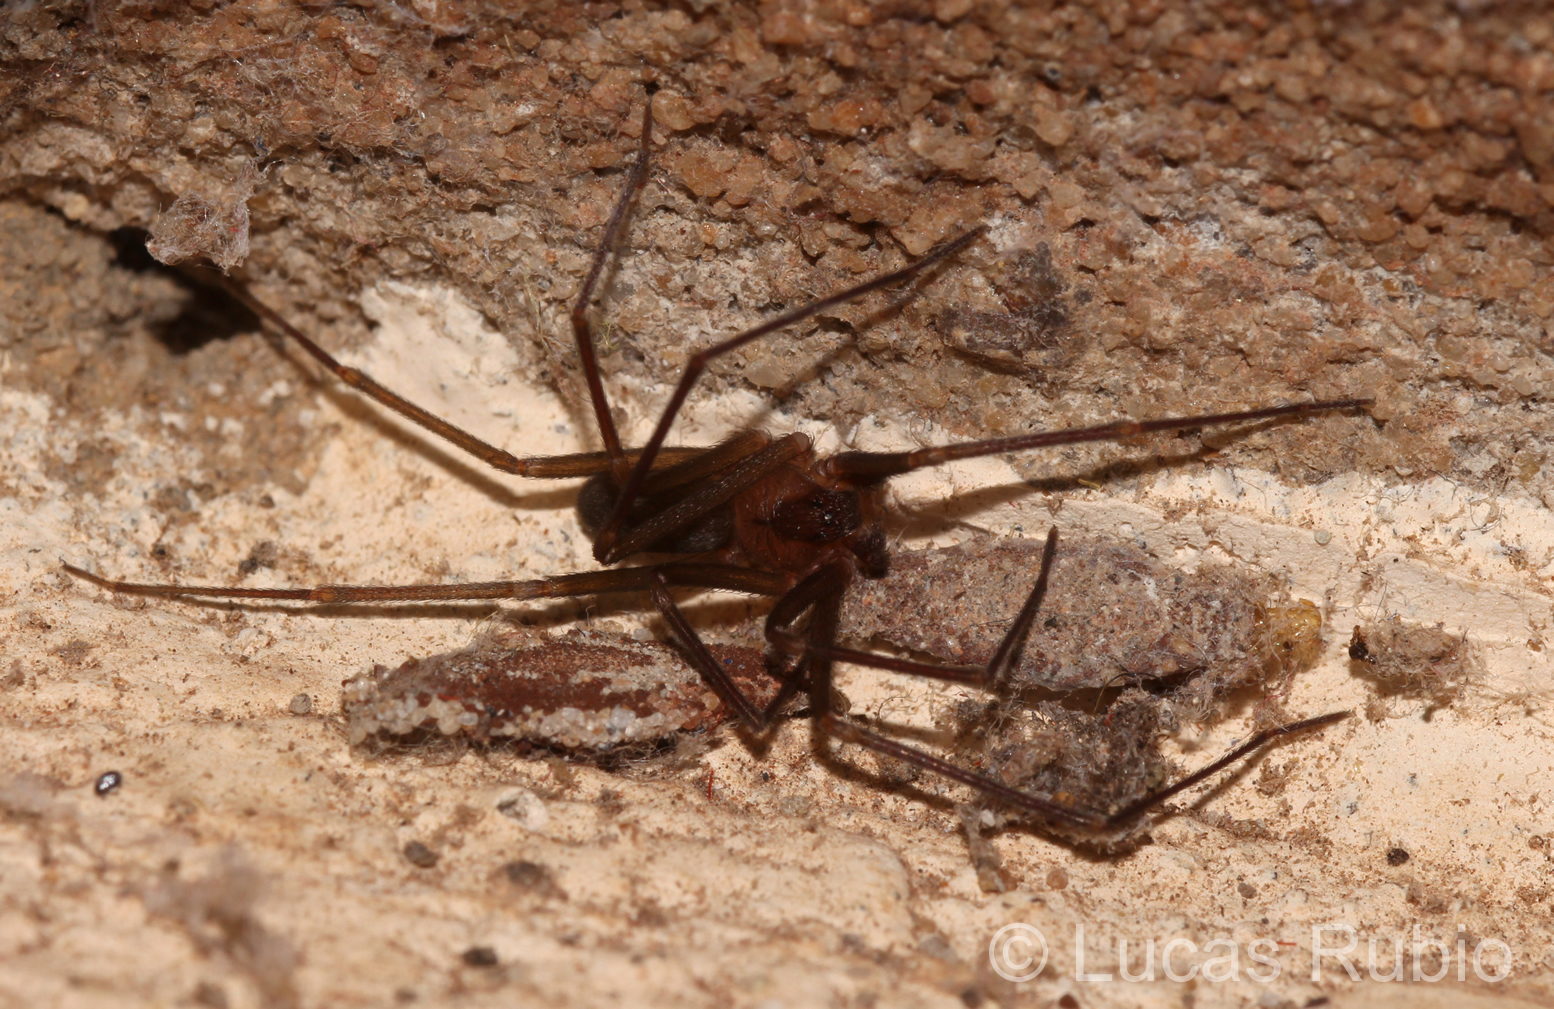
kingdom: Animalia
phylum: Arthropoda
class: Arachnida
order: Araneae
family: Sicariidae
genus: Loxosceles
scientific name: Loxosceles
